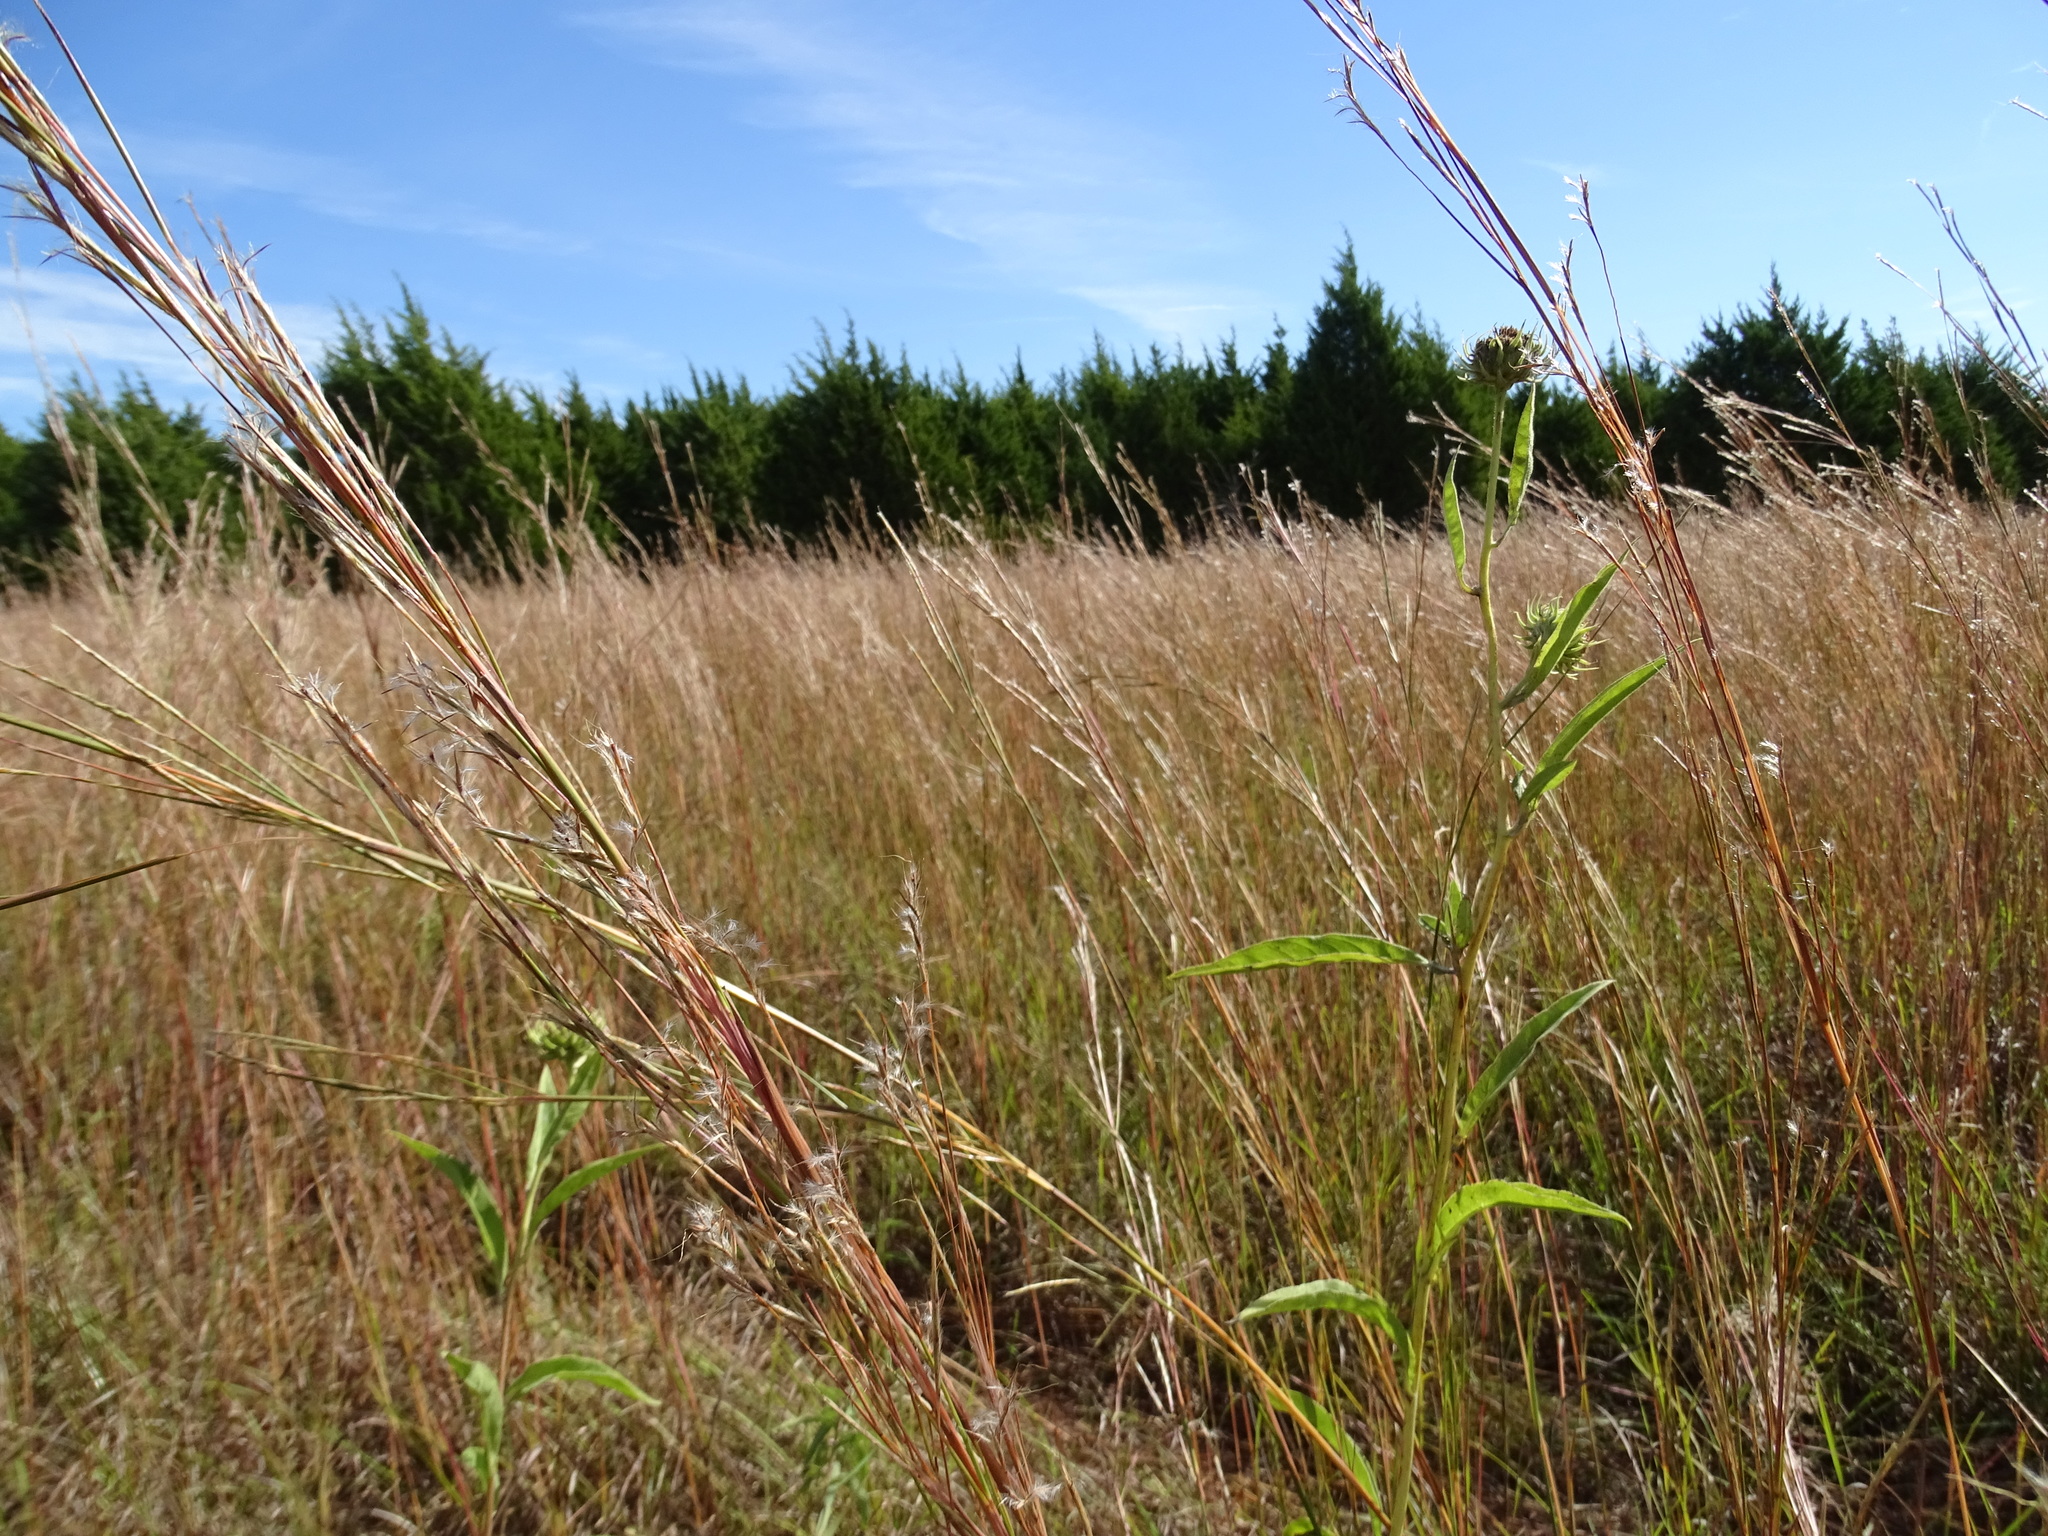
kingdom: Plantae
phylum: Tracheophyta
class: Liliopsida
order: Poales
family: Poaceae
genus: Schizachyrium
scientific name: Schizachyrium scoparium
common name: Little bluestem
